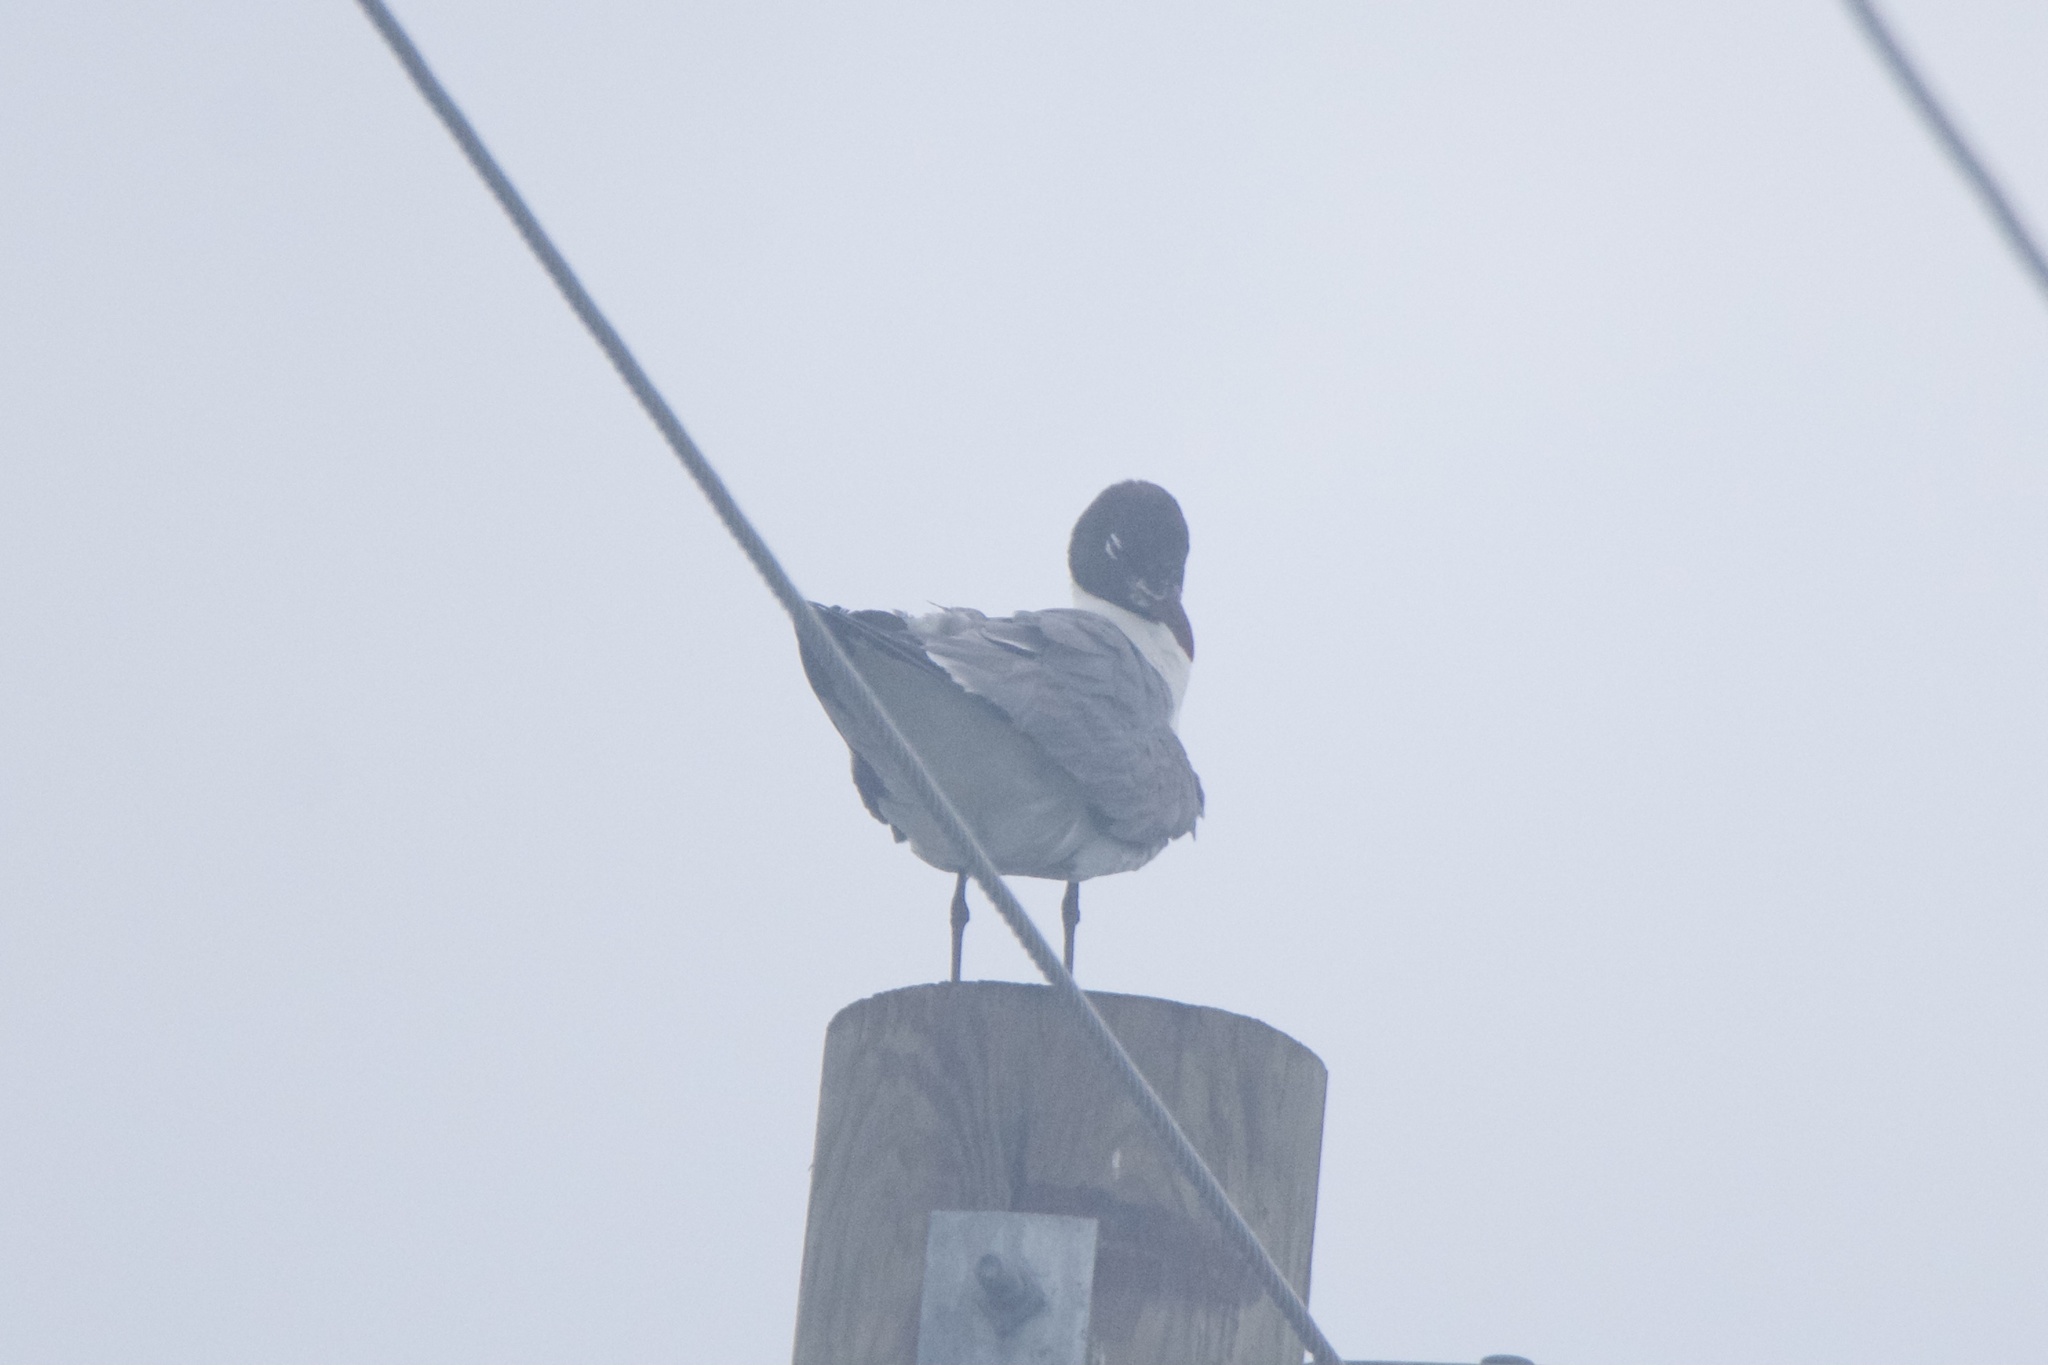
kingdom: Animalia
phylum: Chordata
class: Aves
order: Charadriiformes
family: Laridae
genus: Leucophaeus
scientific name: Leucophaeus atricilla
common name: Laughing gull
